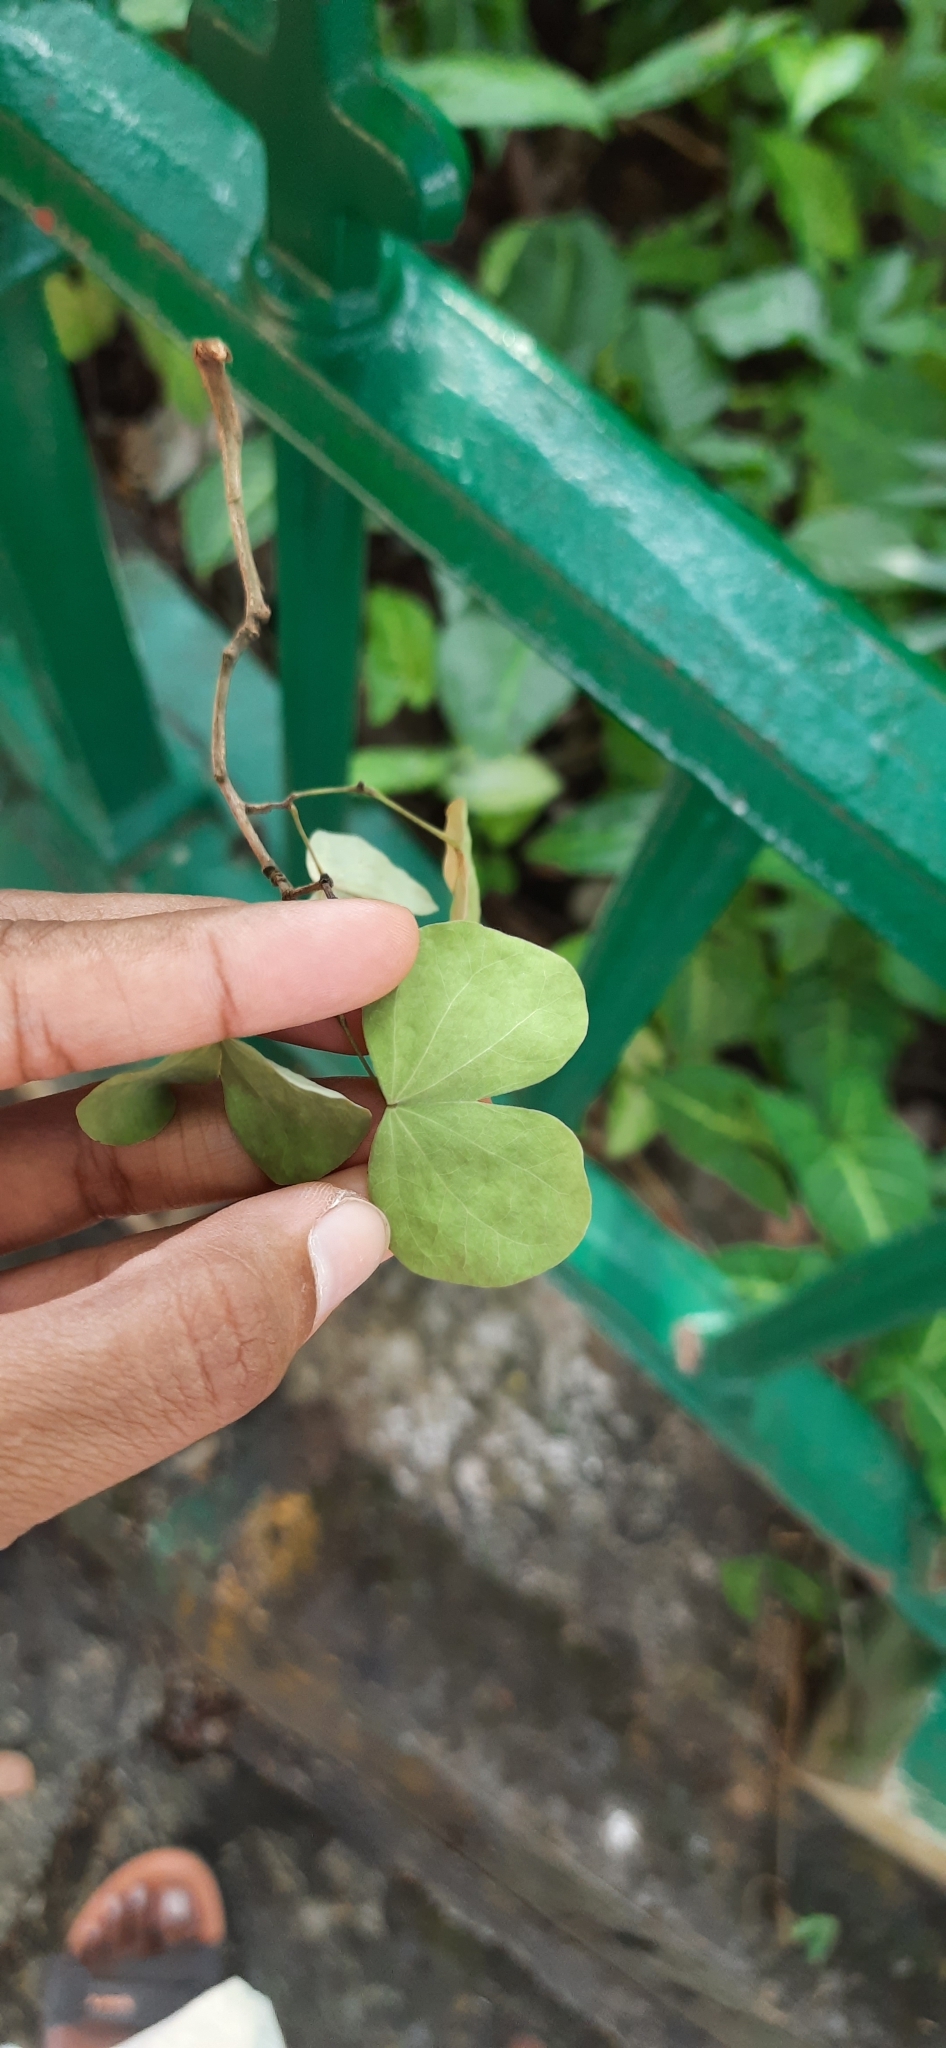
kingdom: Plantae
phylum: Tracheophyta
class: Magnoliopsida
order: Fabales
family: Fabaceae
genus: Bauhinia
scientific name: Bauhinia rufescens
